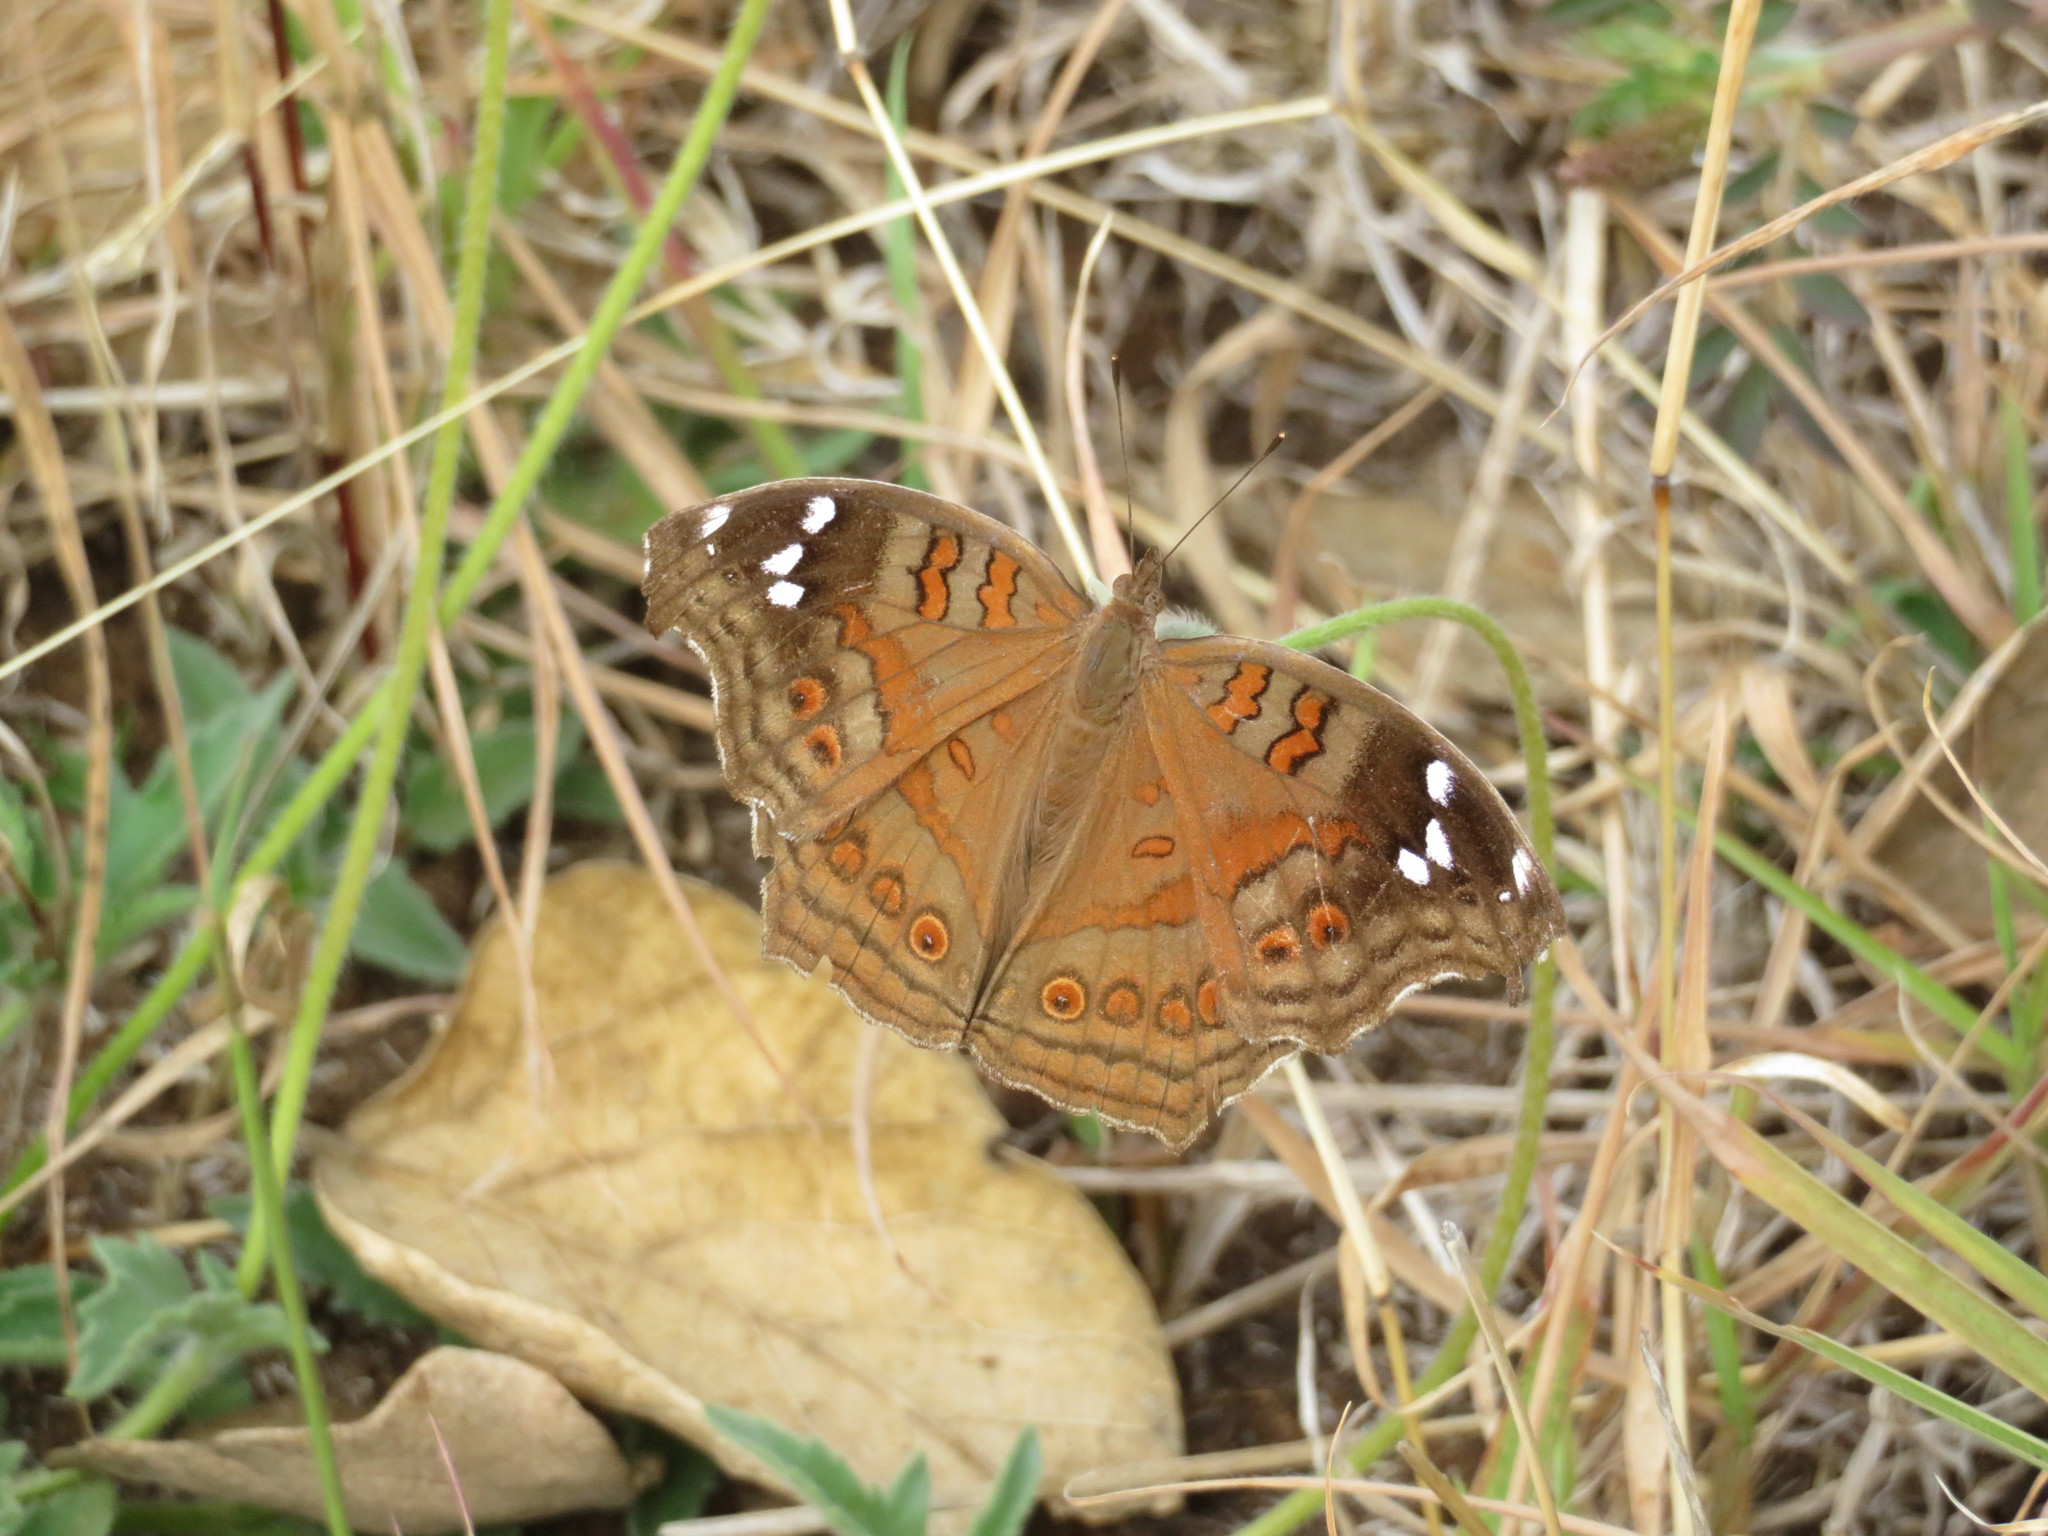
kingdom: Animalia
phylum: Arthropoda
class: Insecta
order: Lepidoptera
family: Nymphalidae
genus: Junonia
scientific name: Junonia natalica
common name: Brown pansy
